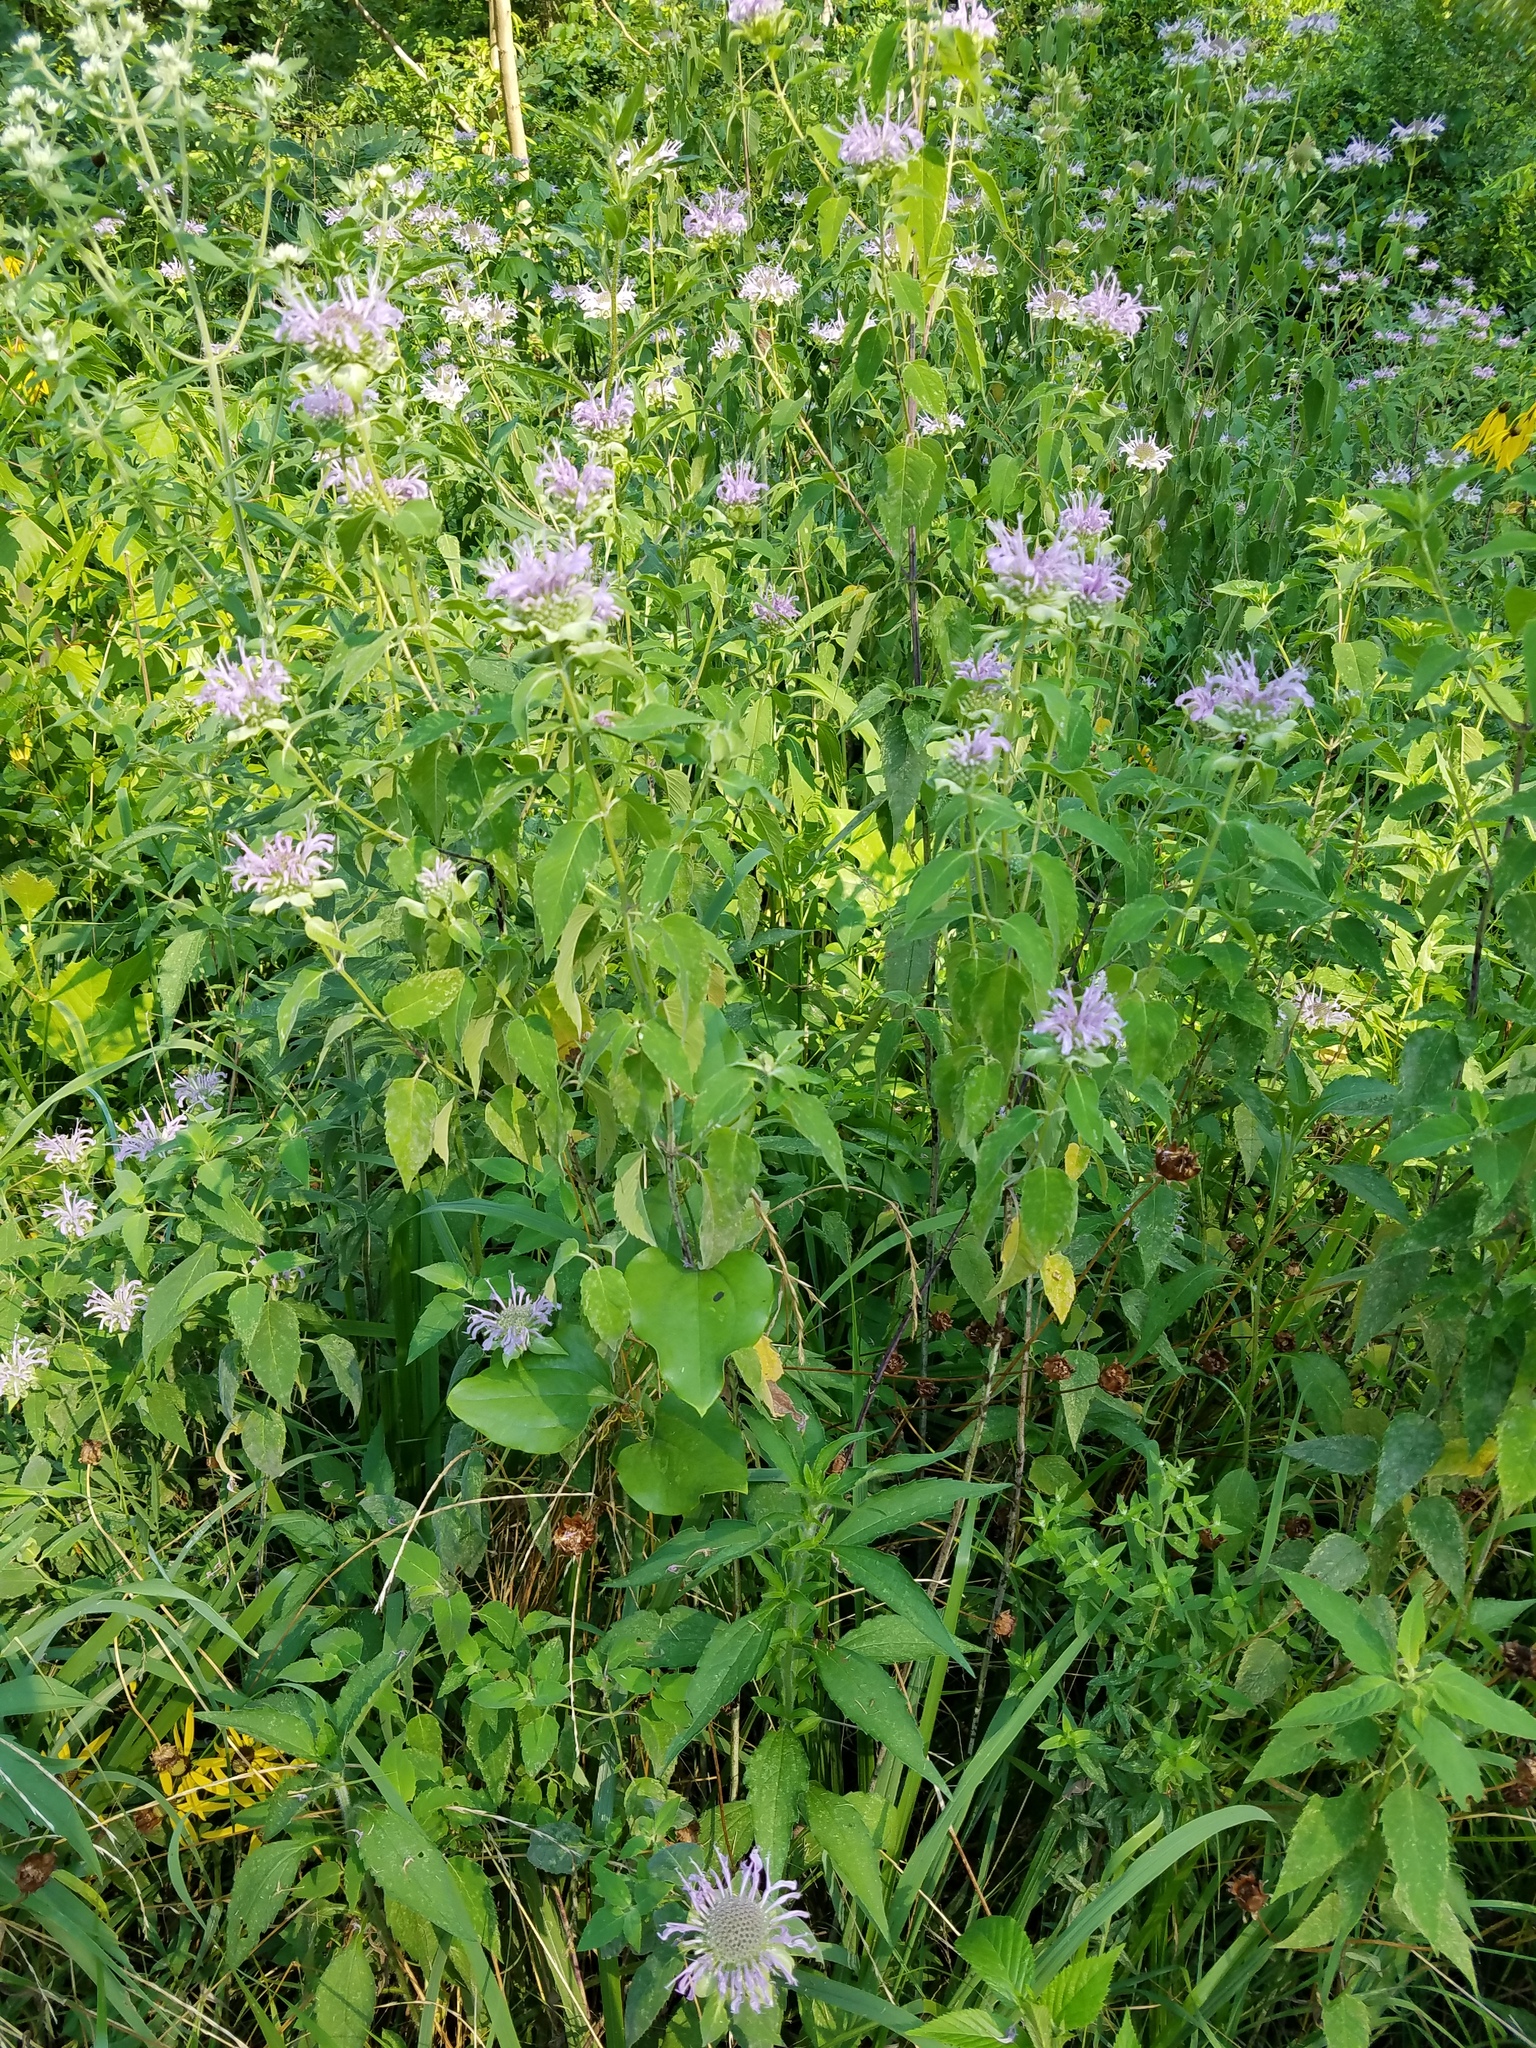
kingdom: Plantae
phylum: Tracheophyta
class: Magnoliopsida
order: Lamiales
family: Lamiaceae
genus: Monarda
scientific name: Monarda fistulosa
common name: Purple beebalm
